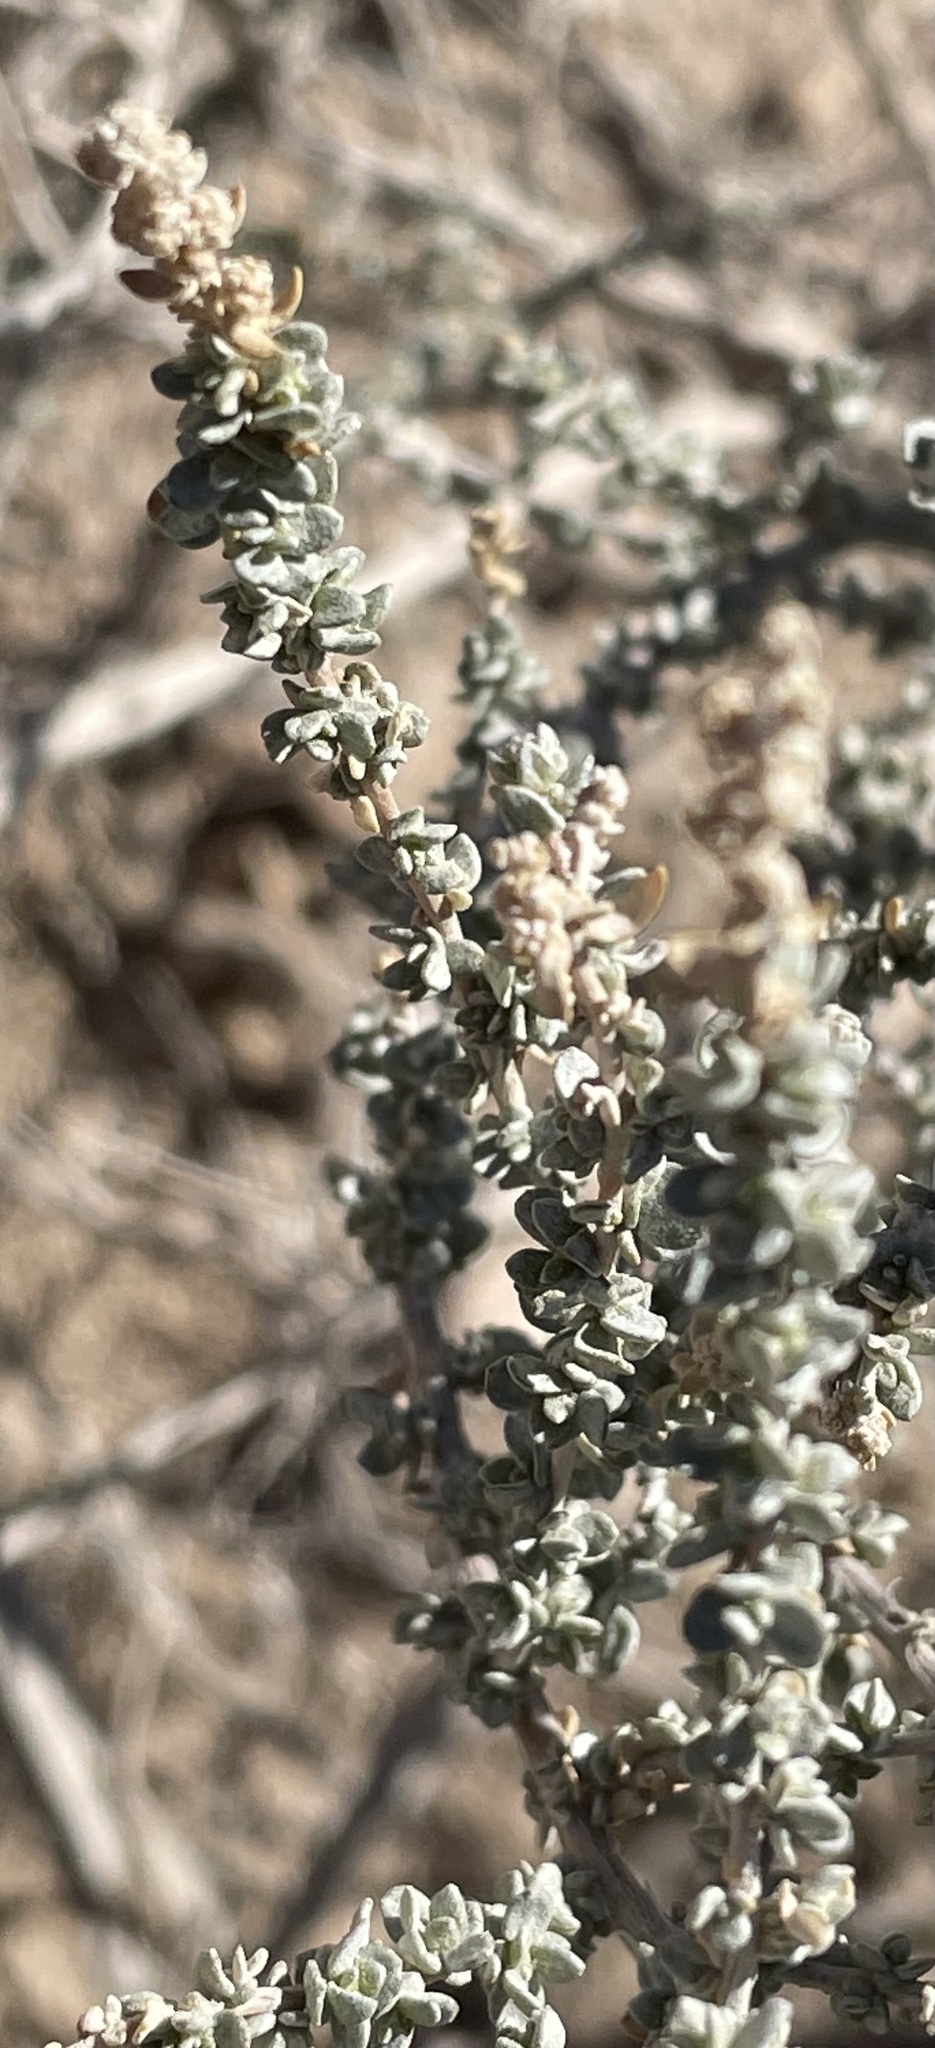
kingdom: Plantae
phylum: Tracheophyta
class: Magnoliopsida
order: Caryophyllales
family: Amaranthaceae
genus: Atriplex
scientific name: Atriplex polycarpa
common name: Desert saltbush
